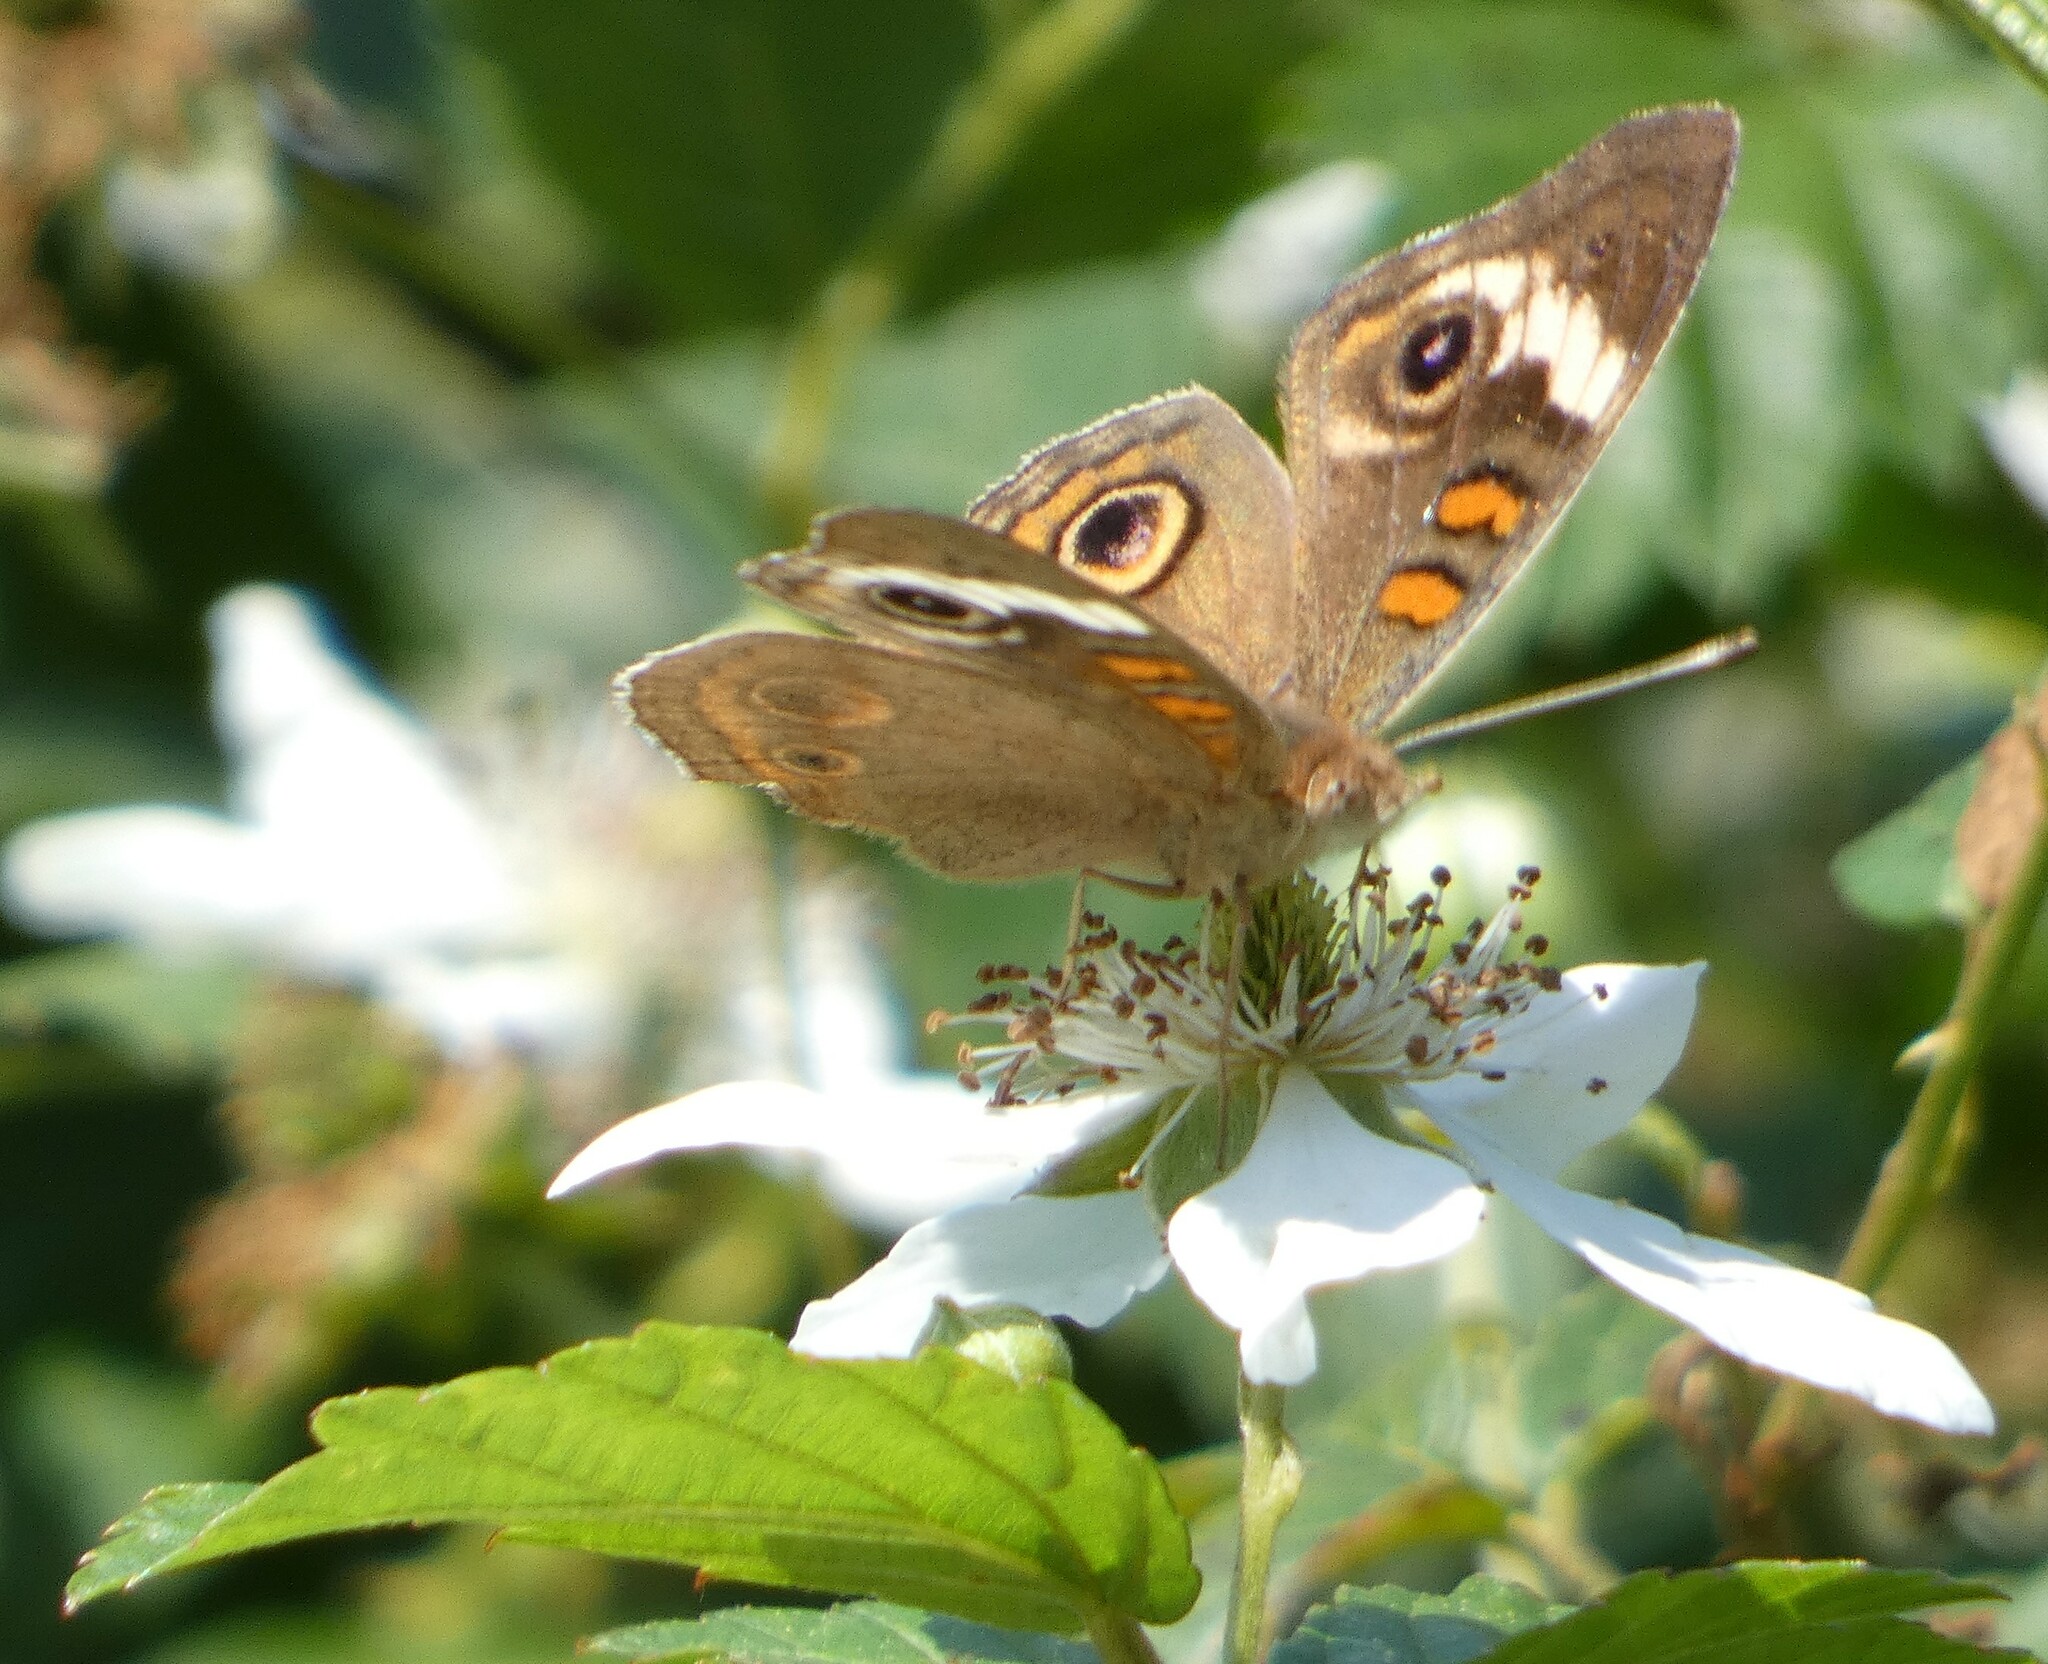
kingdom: Animalia
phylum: Arthropoda
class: Insecta
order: Lepidoptera
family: Nymphalidae
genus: Junonia
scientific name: Junonia coenia
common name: Common buckeye
